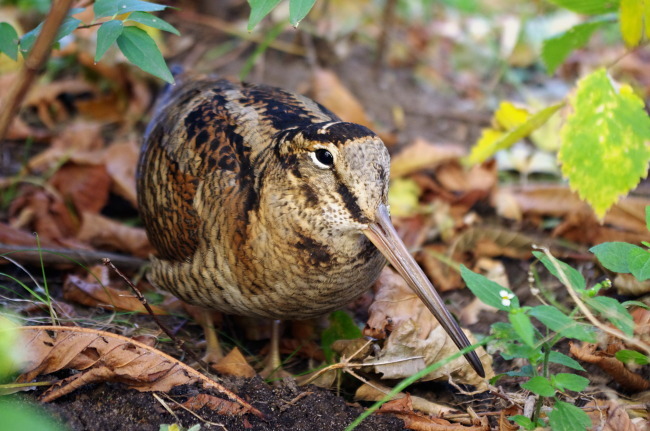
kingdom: Animalia
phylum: Chordata
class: Aves
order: Charadriiformes
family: Scolopacidae
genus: Scolopax
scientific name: Scolopax rusticola
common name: Eurasian woodcock
